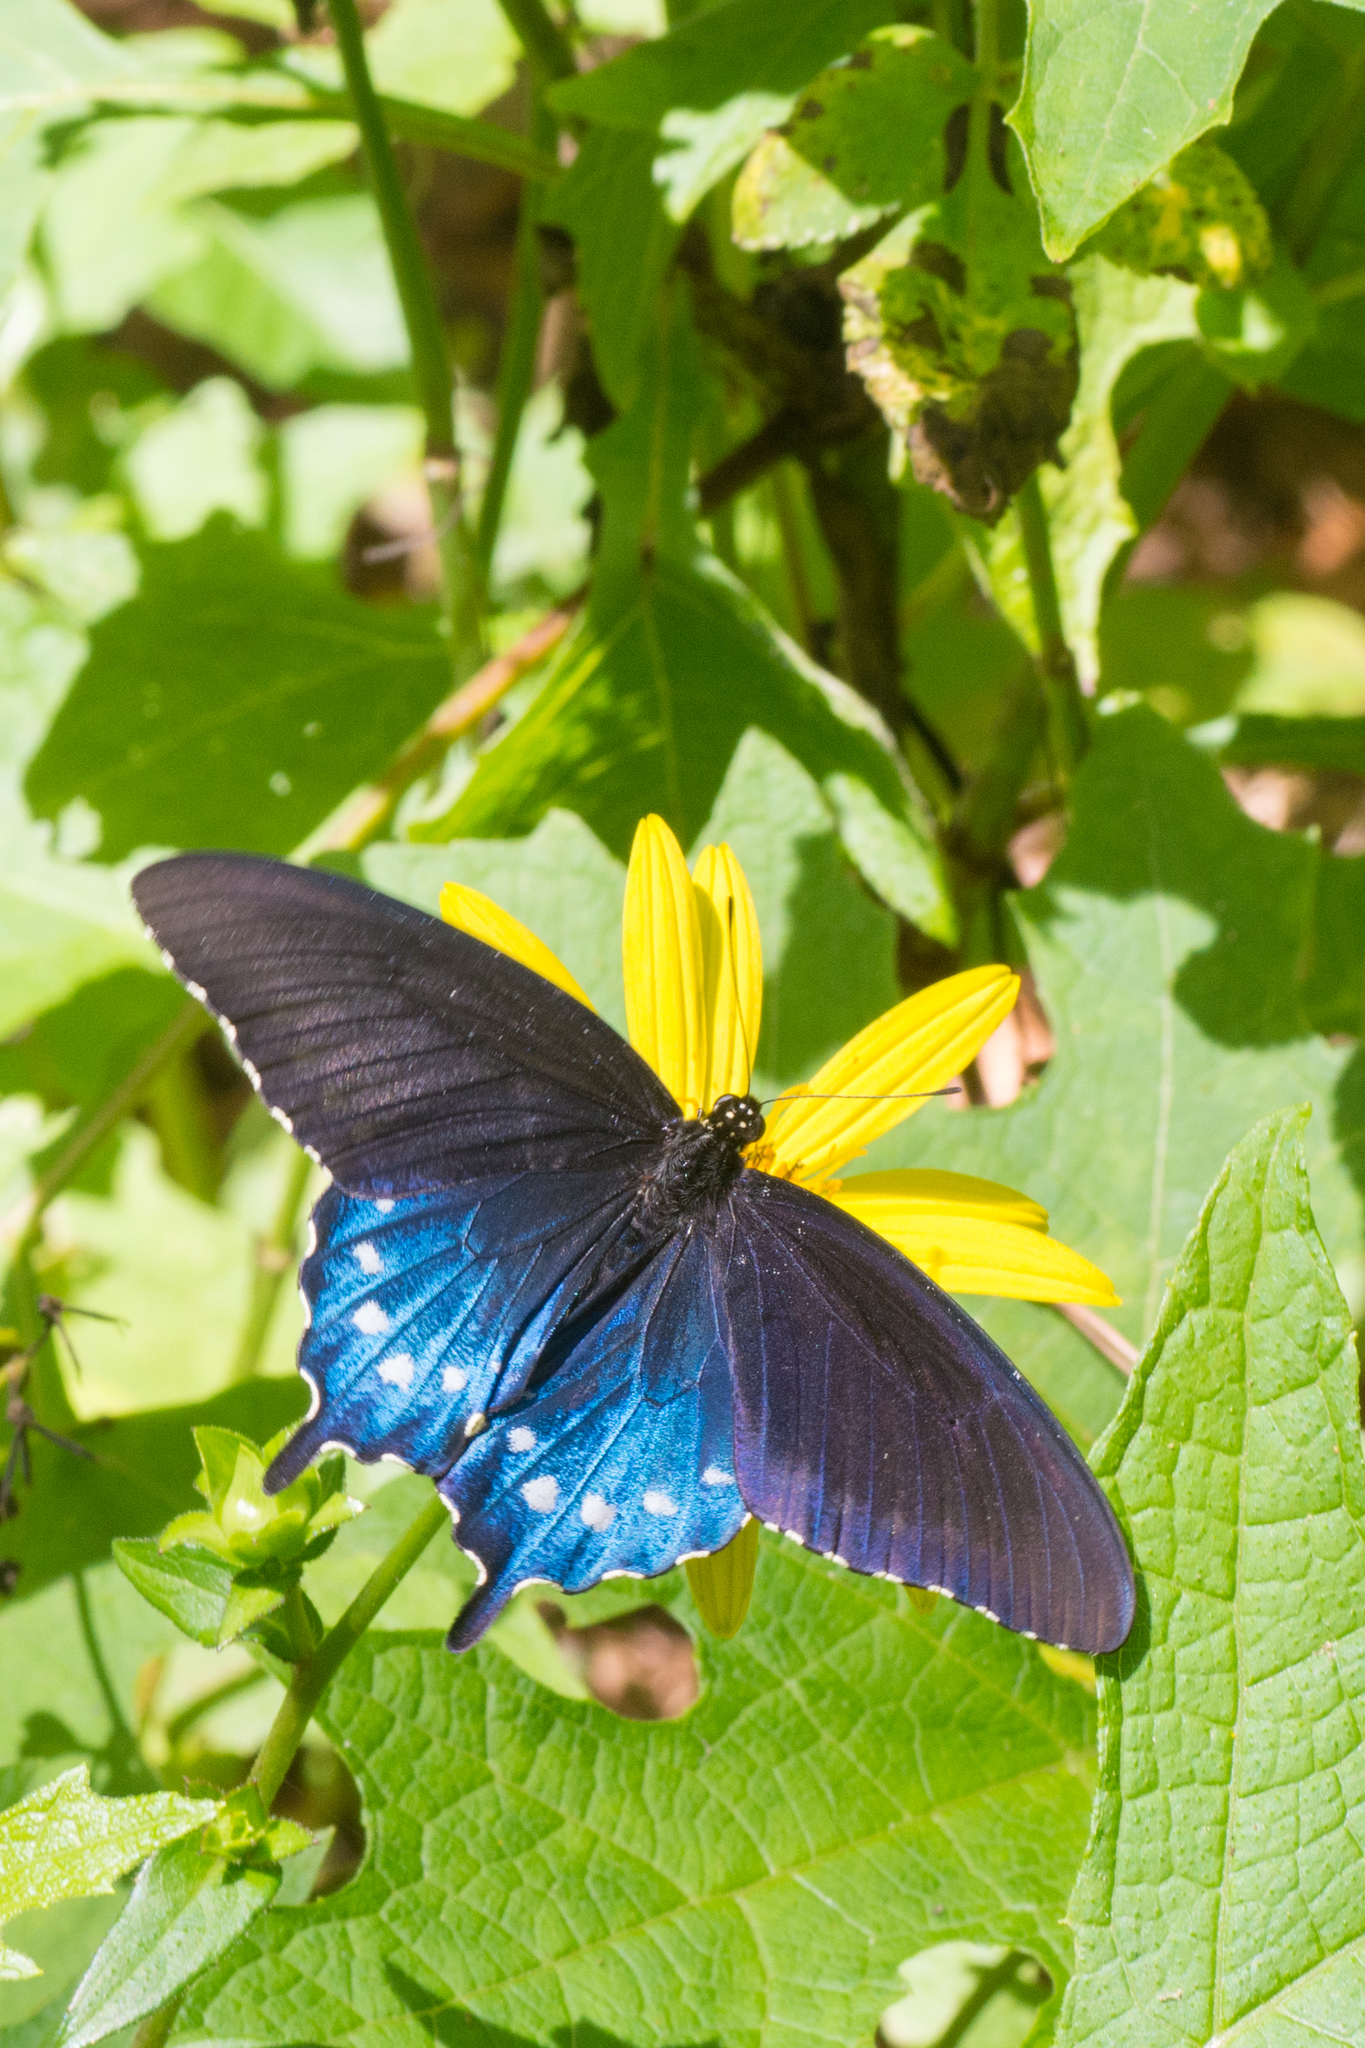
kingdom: Animalia
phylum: Arthropoda
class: Insecta
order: Lepidoptera
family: Papilionidae
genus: Battus
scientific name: Battus philenor
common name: Pipevine swallowtail
